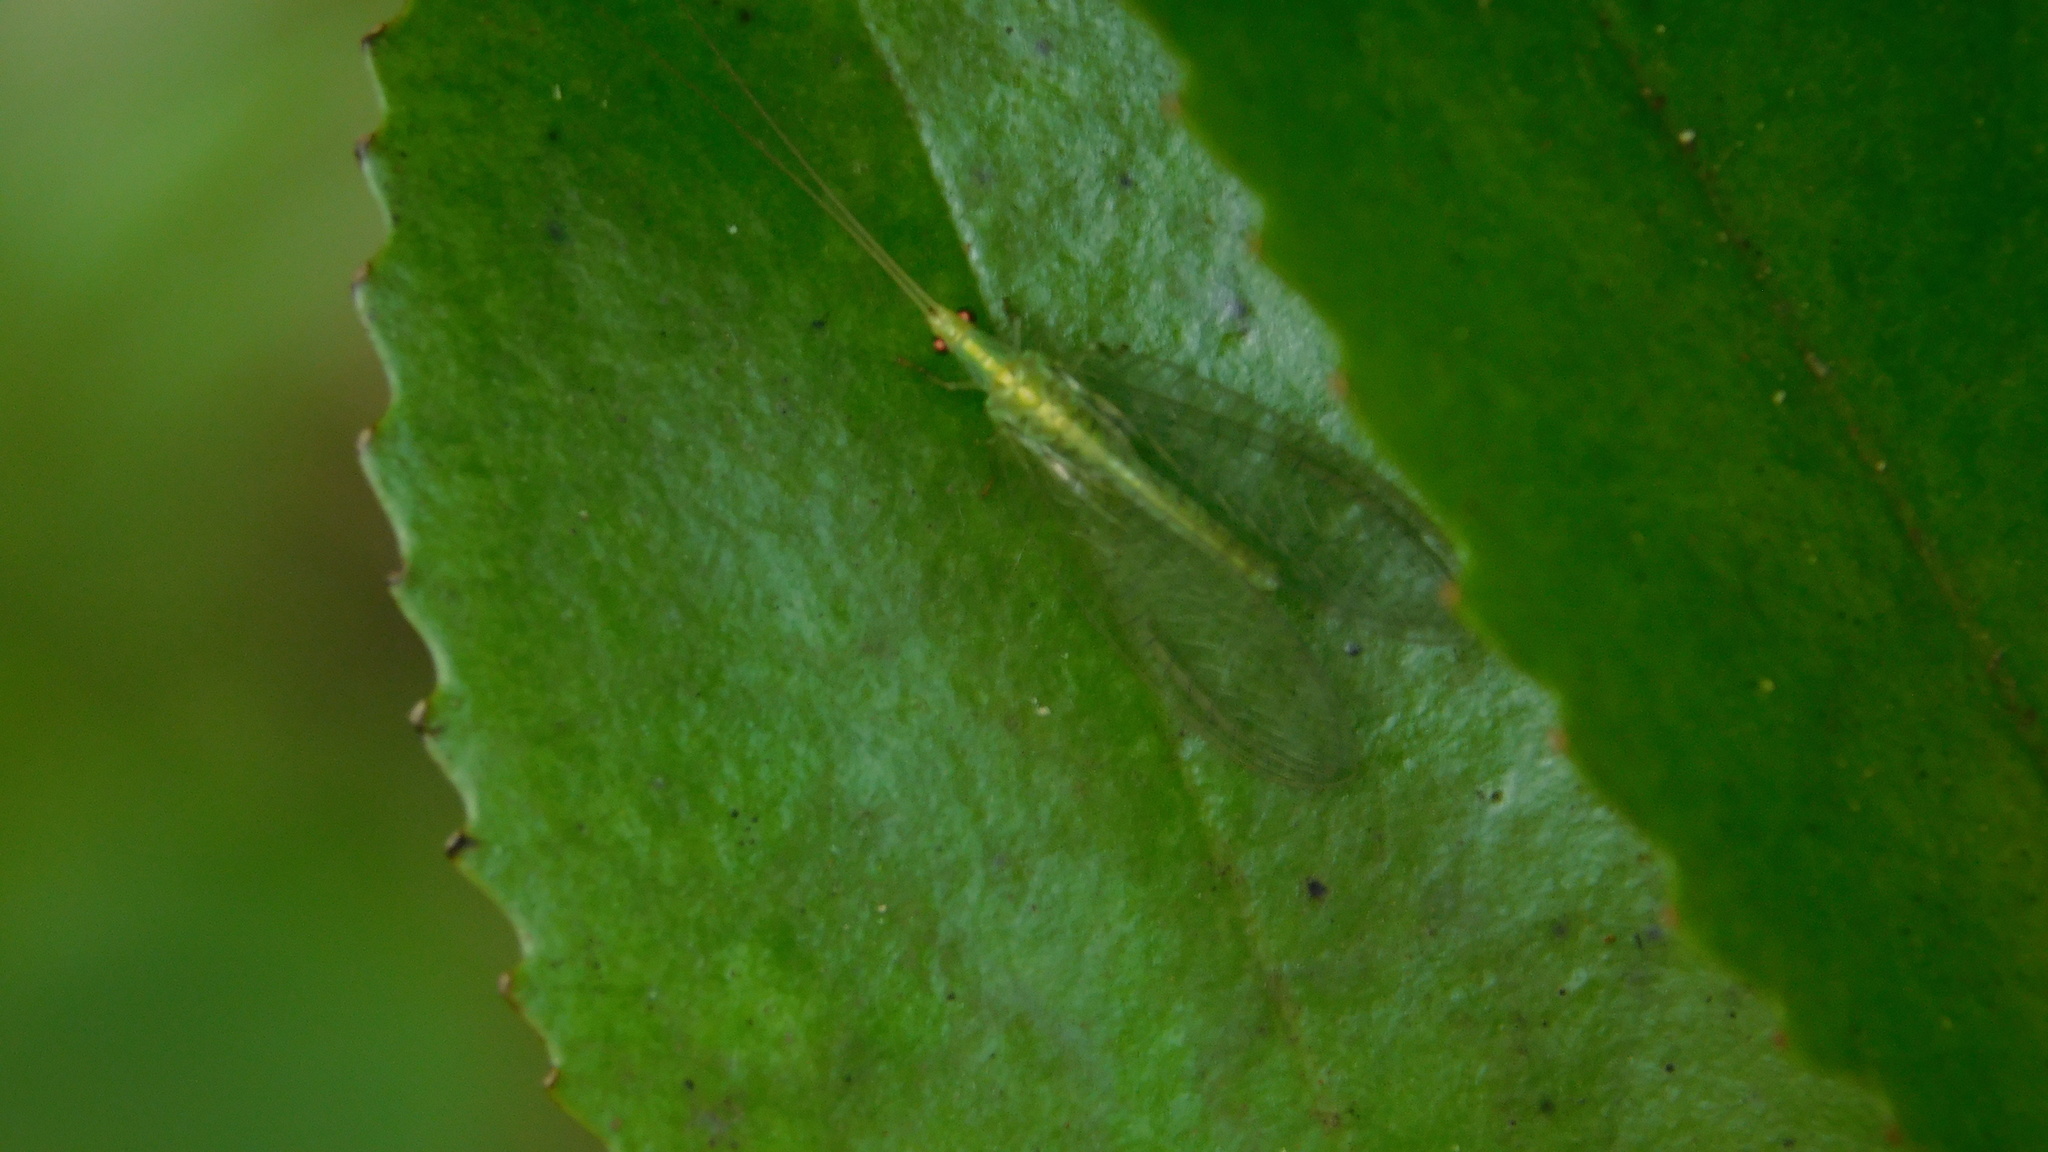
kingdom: Animalia
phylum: Arthropoda
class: Insecta
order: Neuroptera
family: Chrysopidae
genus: Mallada
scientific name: Mallada basalis
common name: Green lacewing
